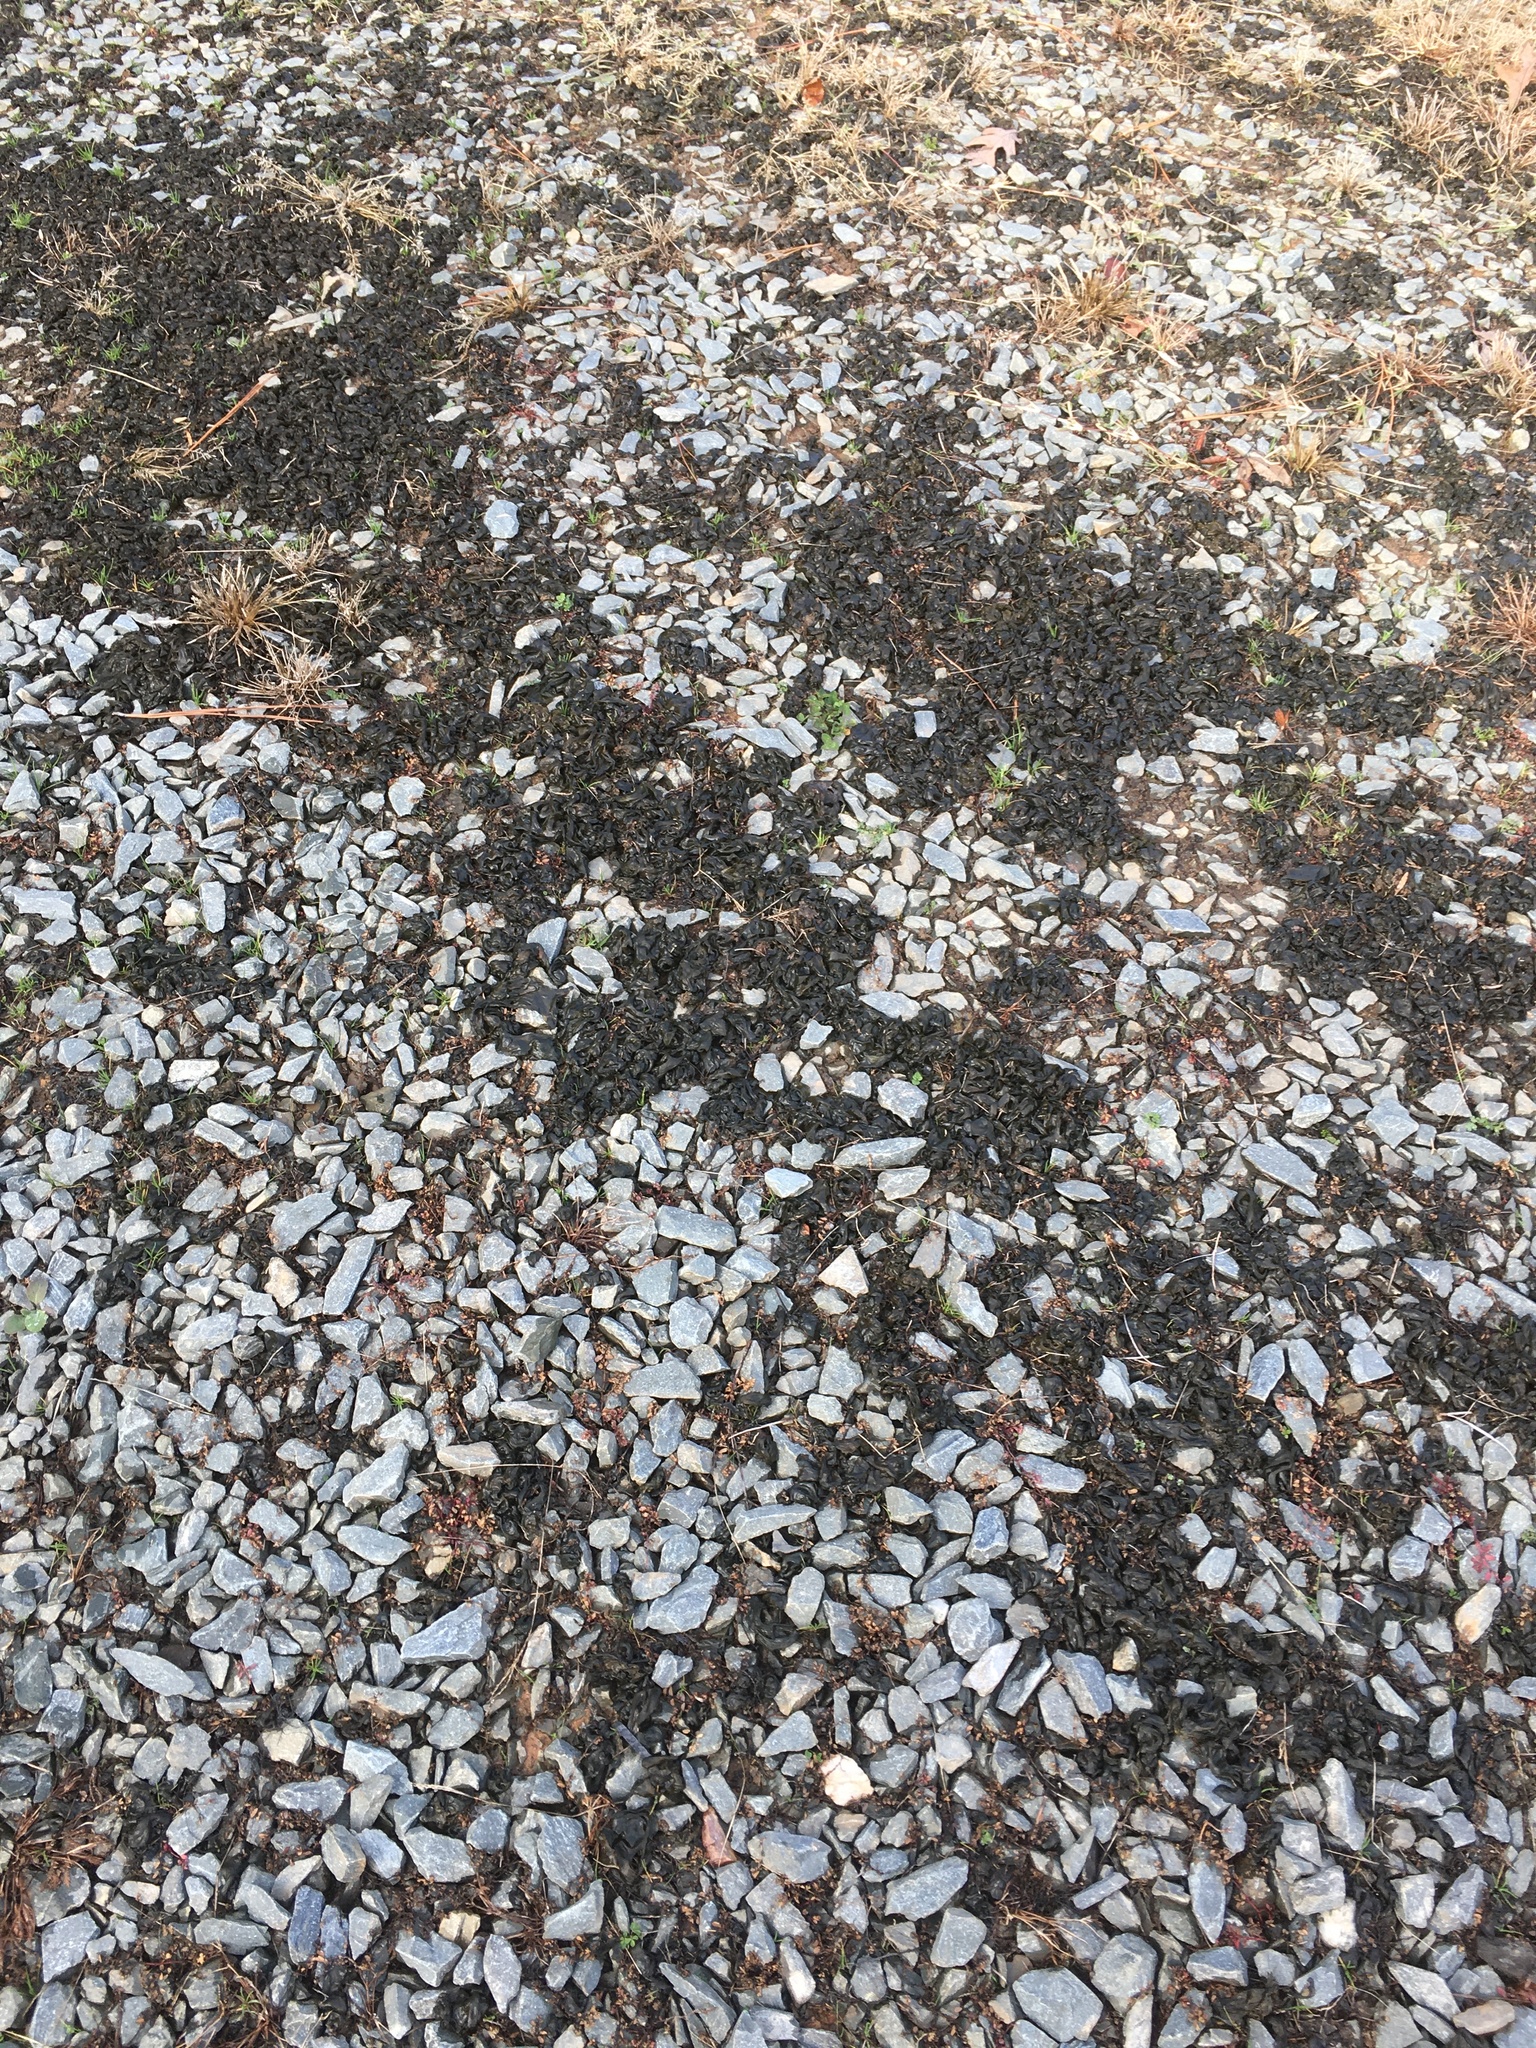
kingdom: Bacteria
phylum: Cyanobacteria
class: Cyanobacteriia
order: Cyanobacteriales
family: Nostocaceae
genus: Nostoc
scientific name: Nostoc commune
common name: Star jelly
